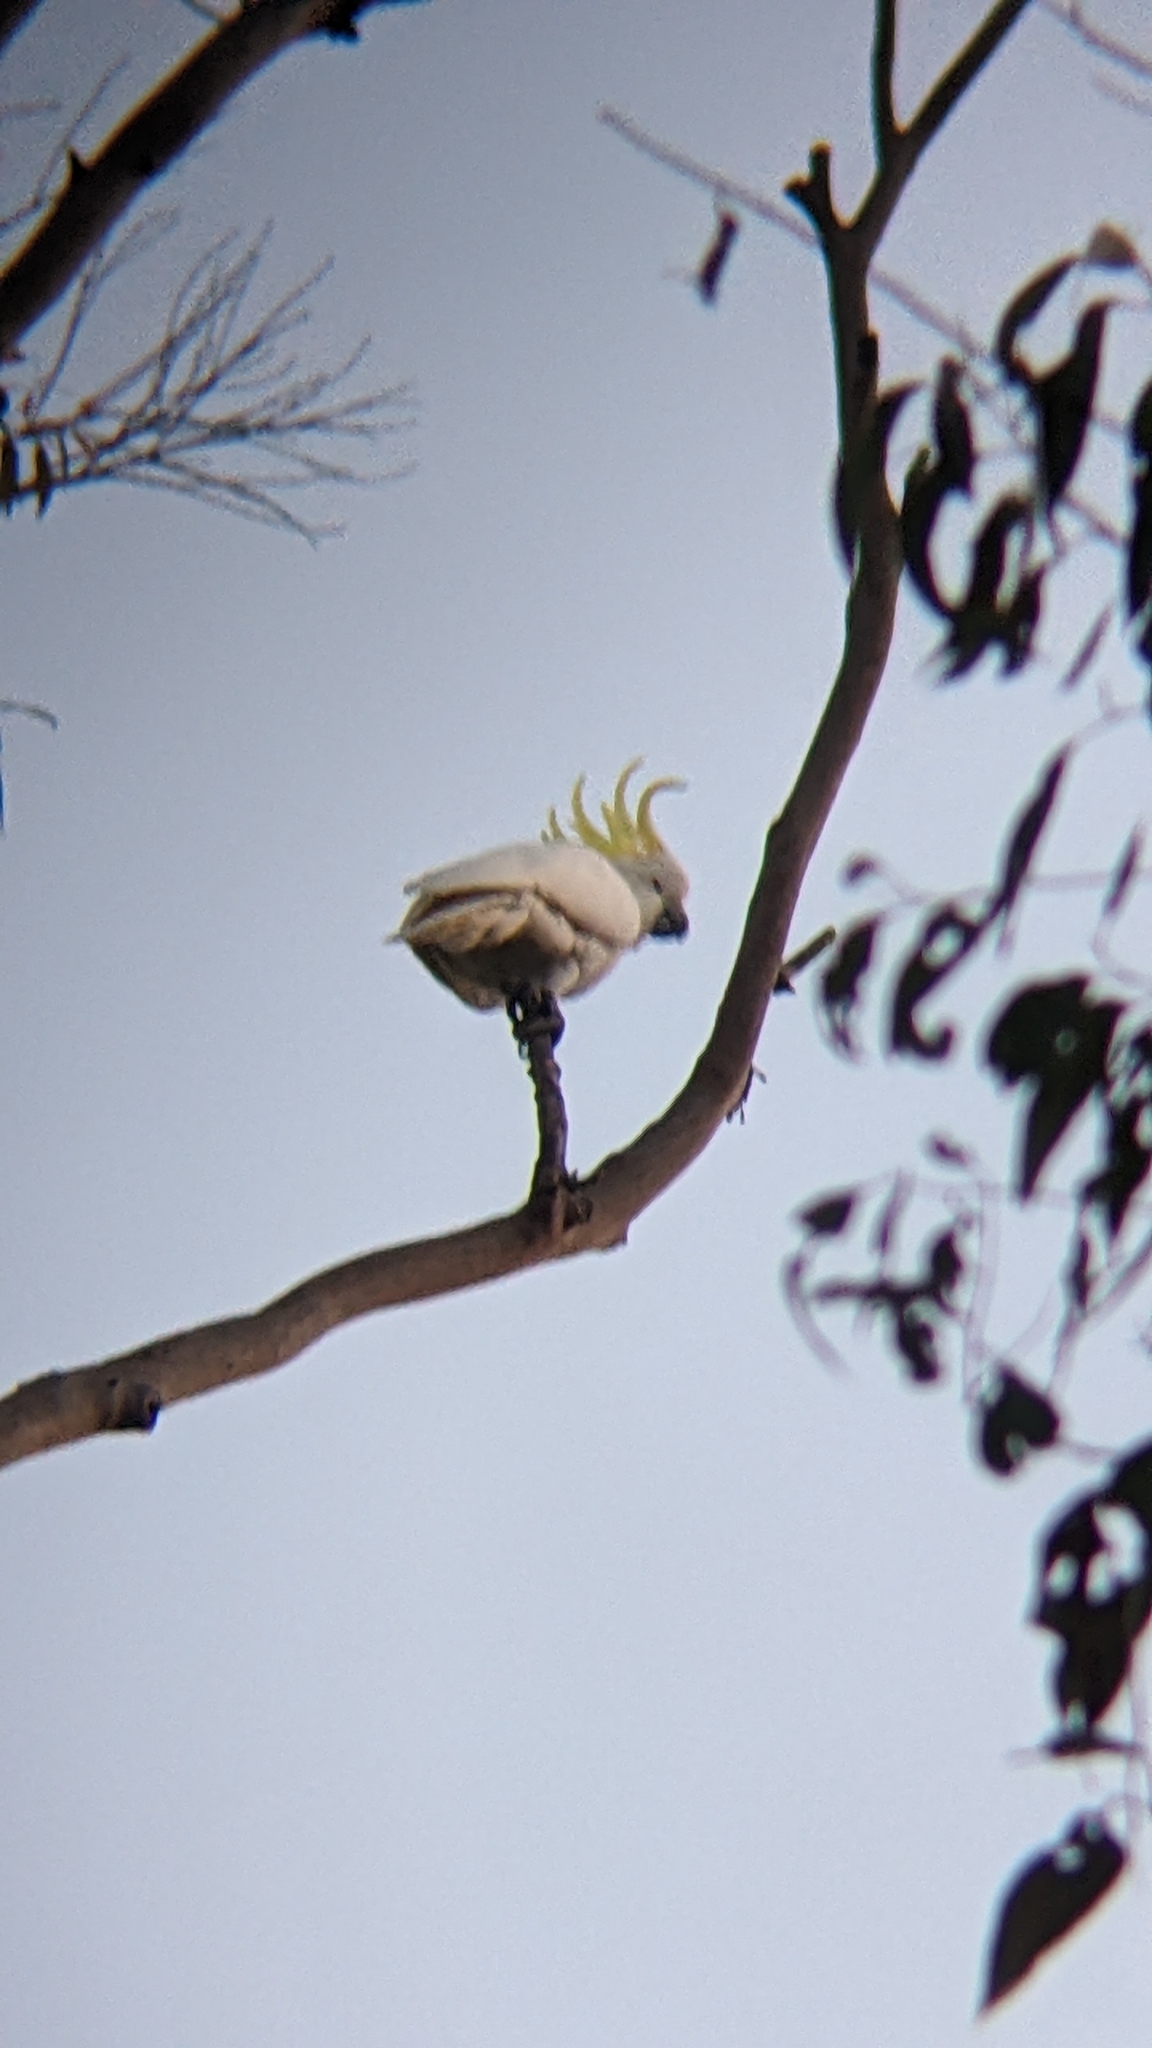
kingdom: Animalia
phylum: Chordata
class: Aves
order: Psittaciformes
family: Psittacidae
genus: Cacatua
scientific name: Cacatua galerita
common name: Sulphur-crested cockatoo
